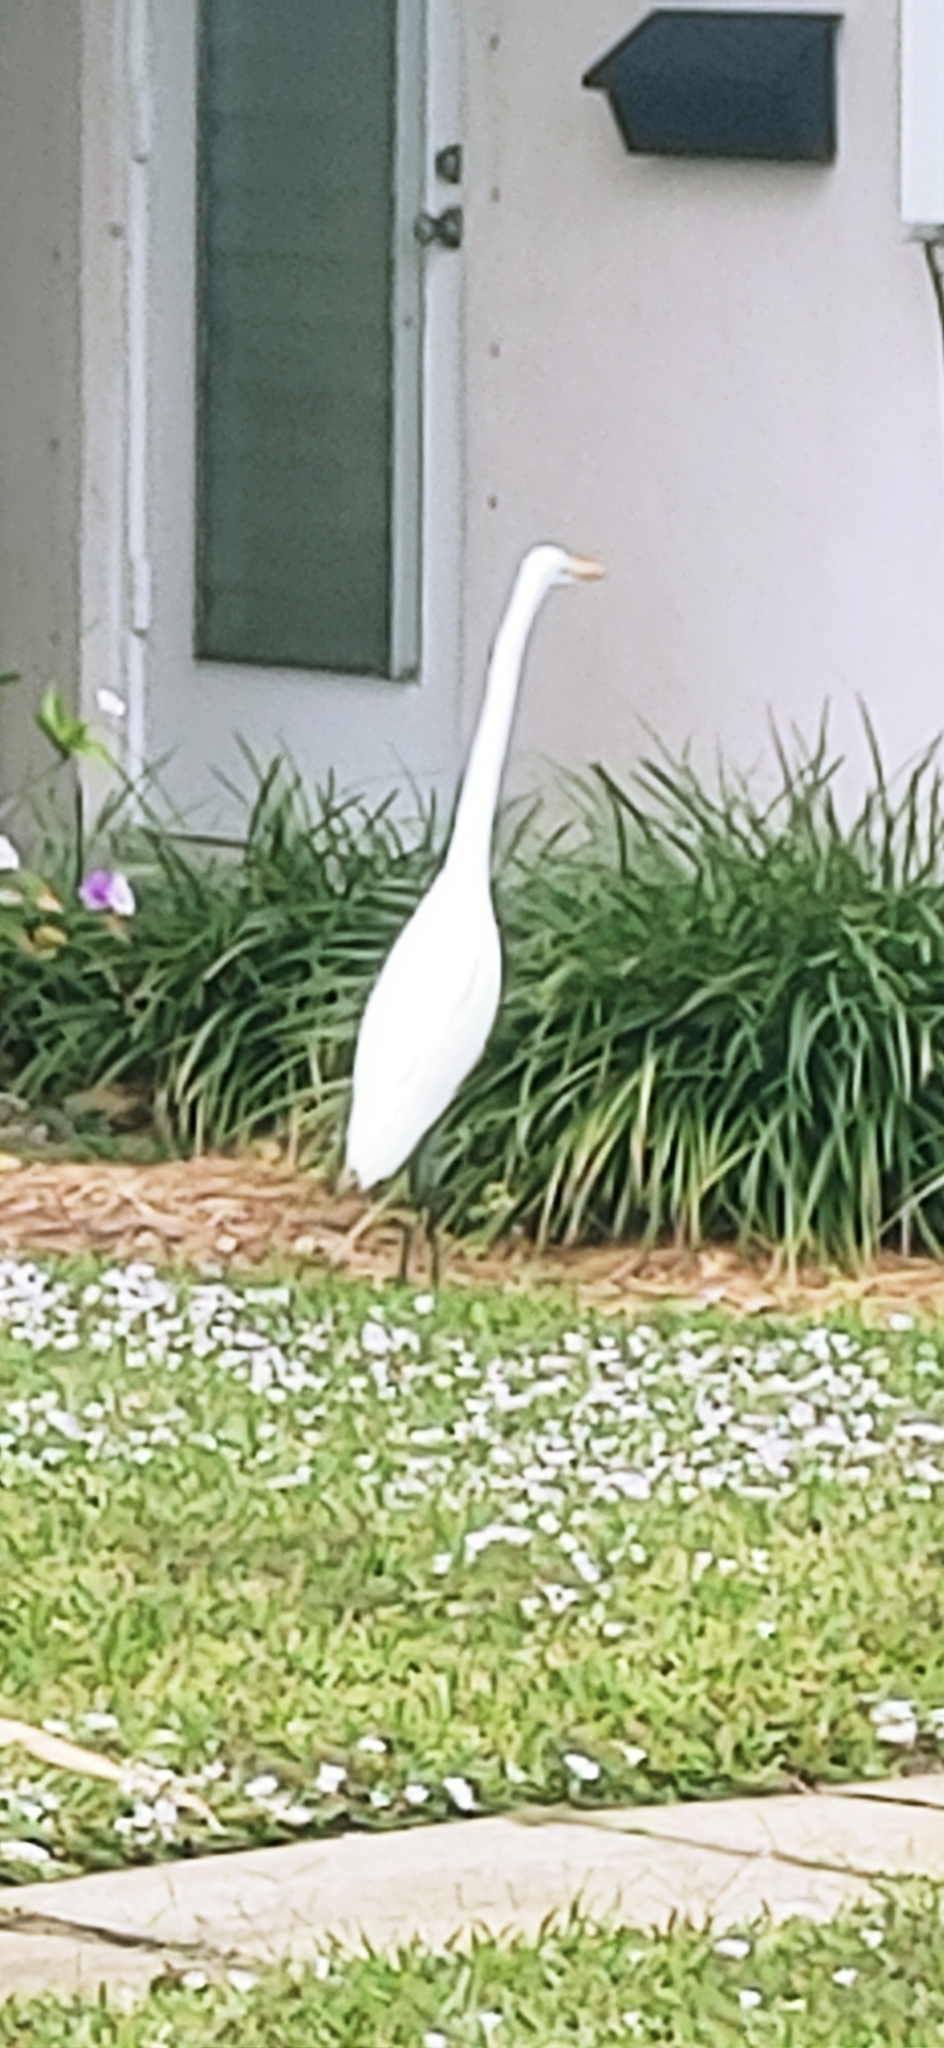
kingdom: Animalia
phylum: Chordata
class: Aves
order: Pelecaniformes
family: Ardeidae
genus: Ardea
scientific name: Ardea alba
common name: Great egret
